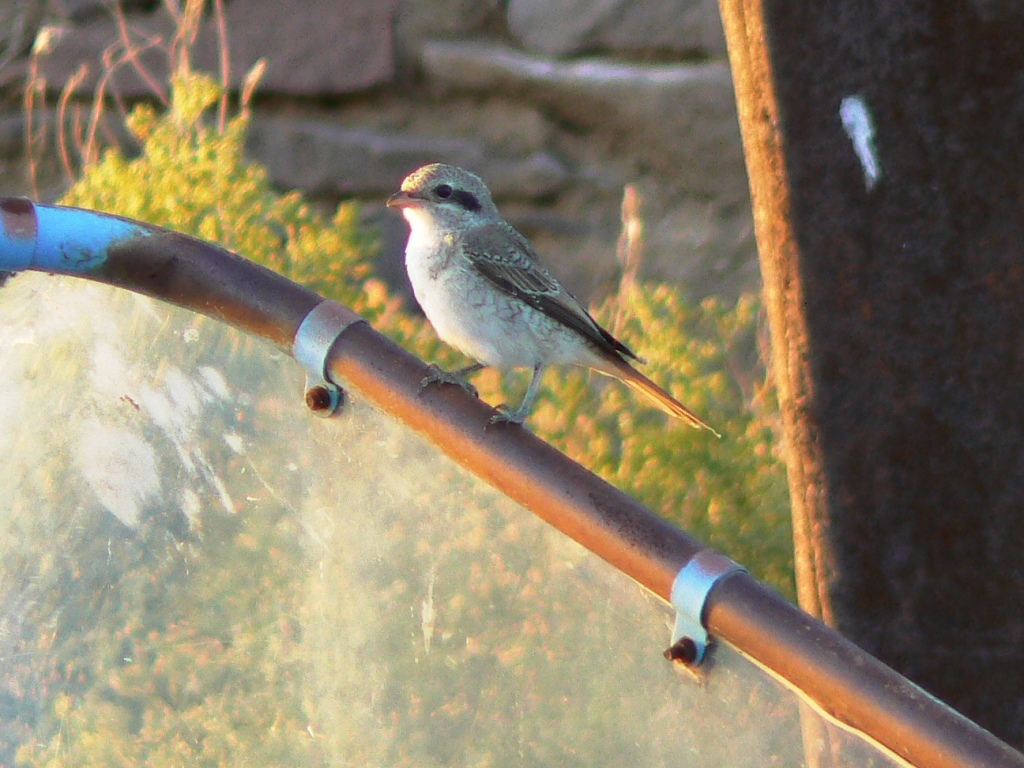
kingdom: Animalia
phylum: Chordata
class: Aves
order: Passeriformes
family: Laniidae
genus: Lanius
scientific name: Lanius phoenicuroides
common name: Red-tailed shrike
